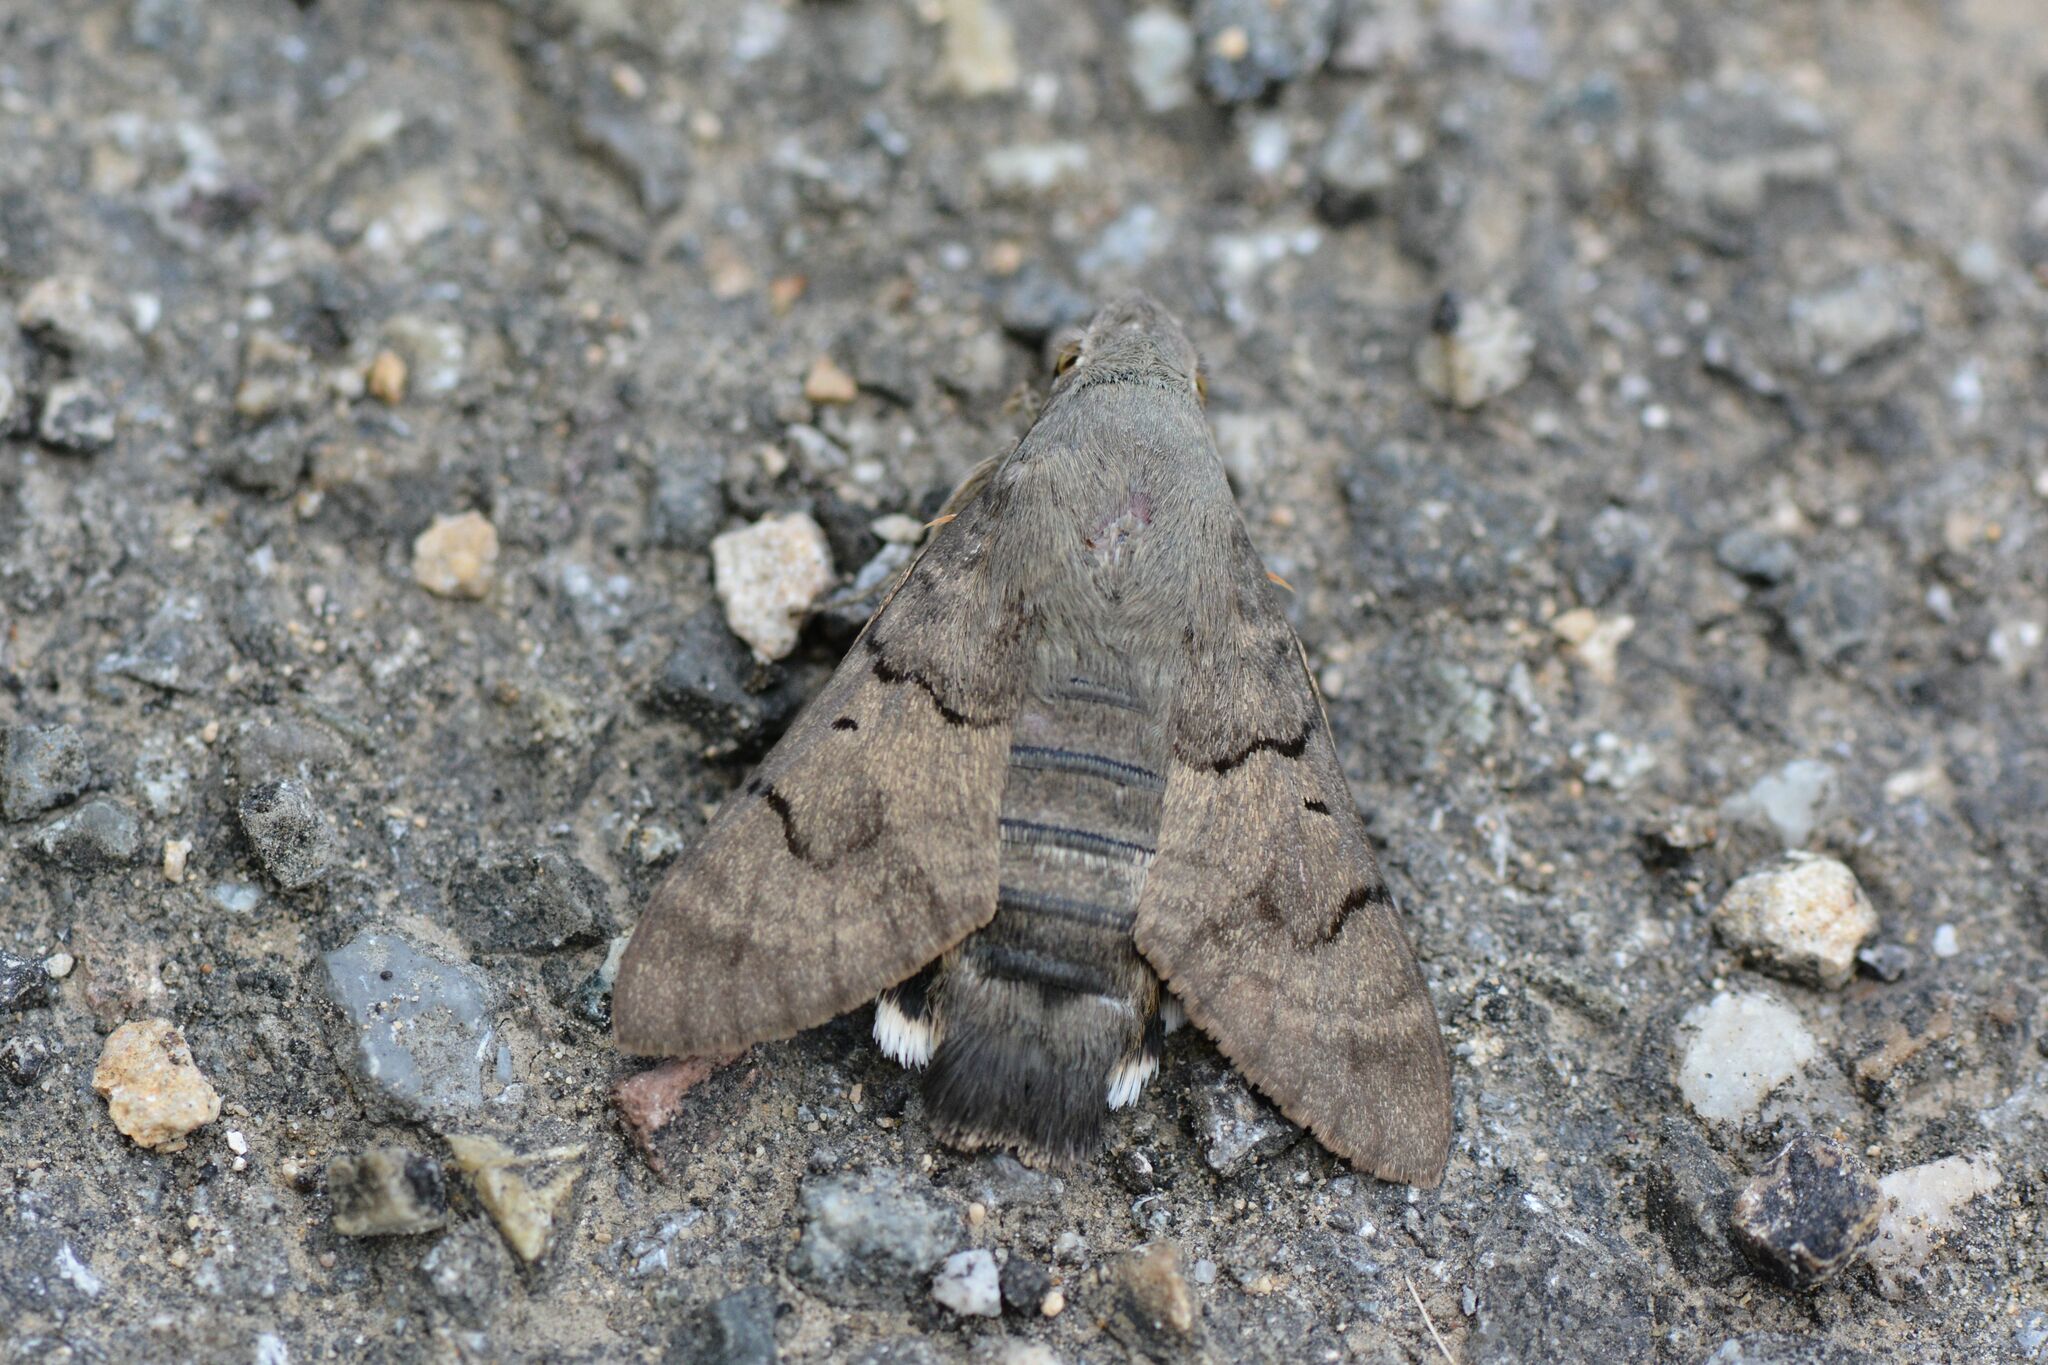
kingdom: Animalia
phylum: Arthropoda
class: Insecta
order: Lepidoptera
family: Sphingidae
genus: Macroglossum
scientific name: Macroglossum stellatarum
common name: Humming-bird hawk-moth
